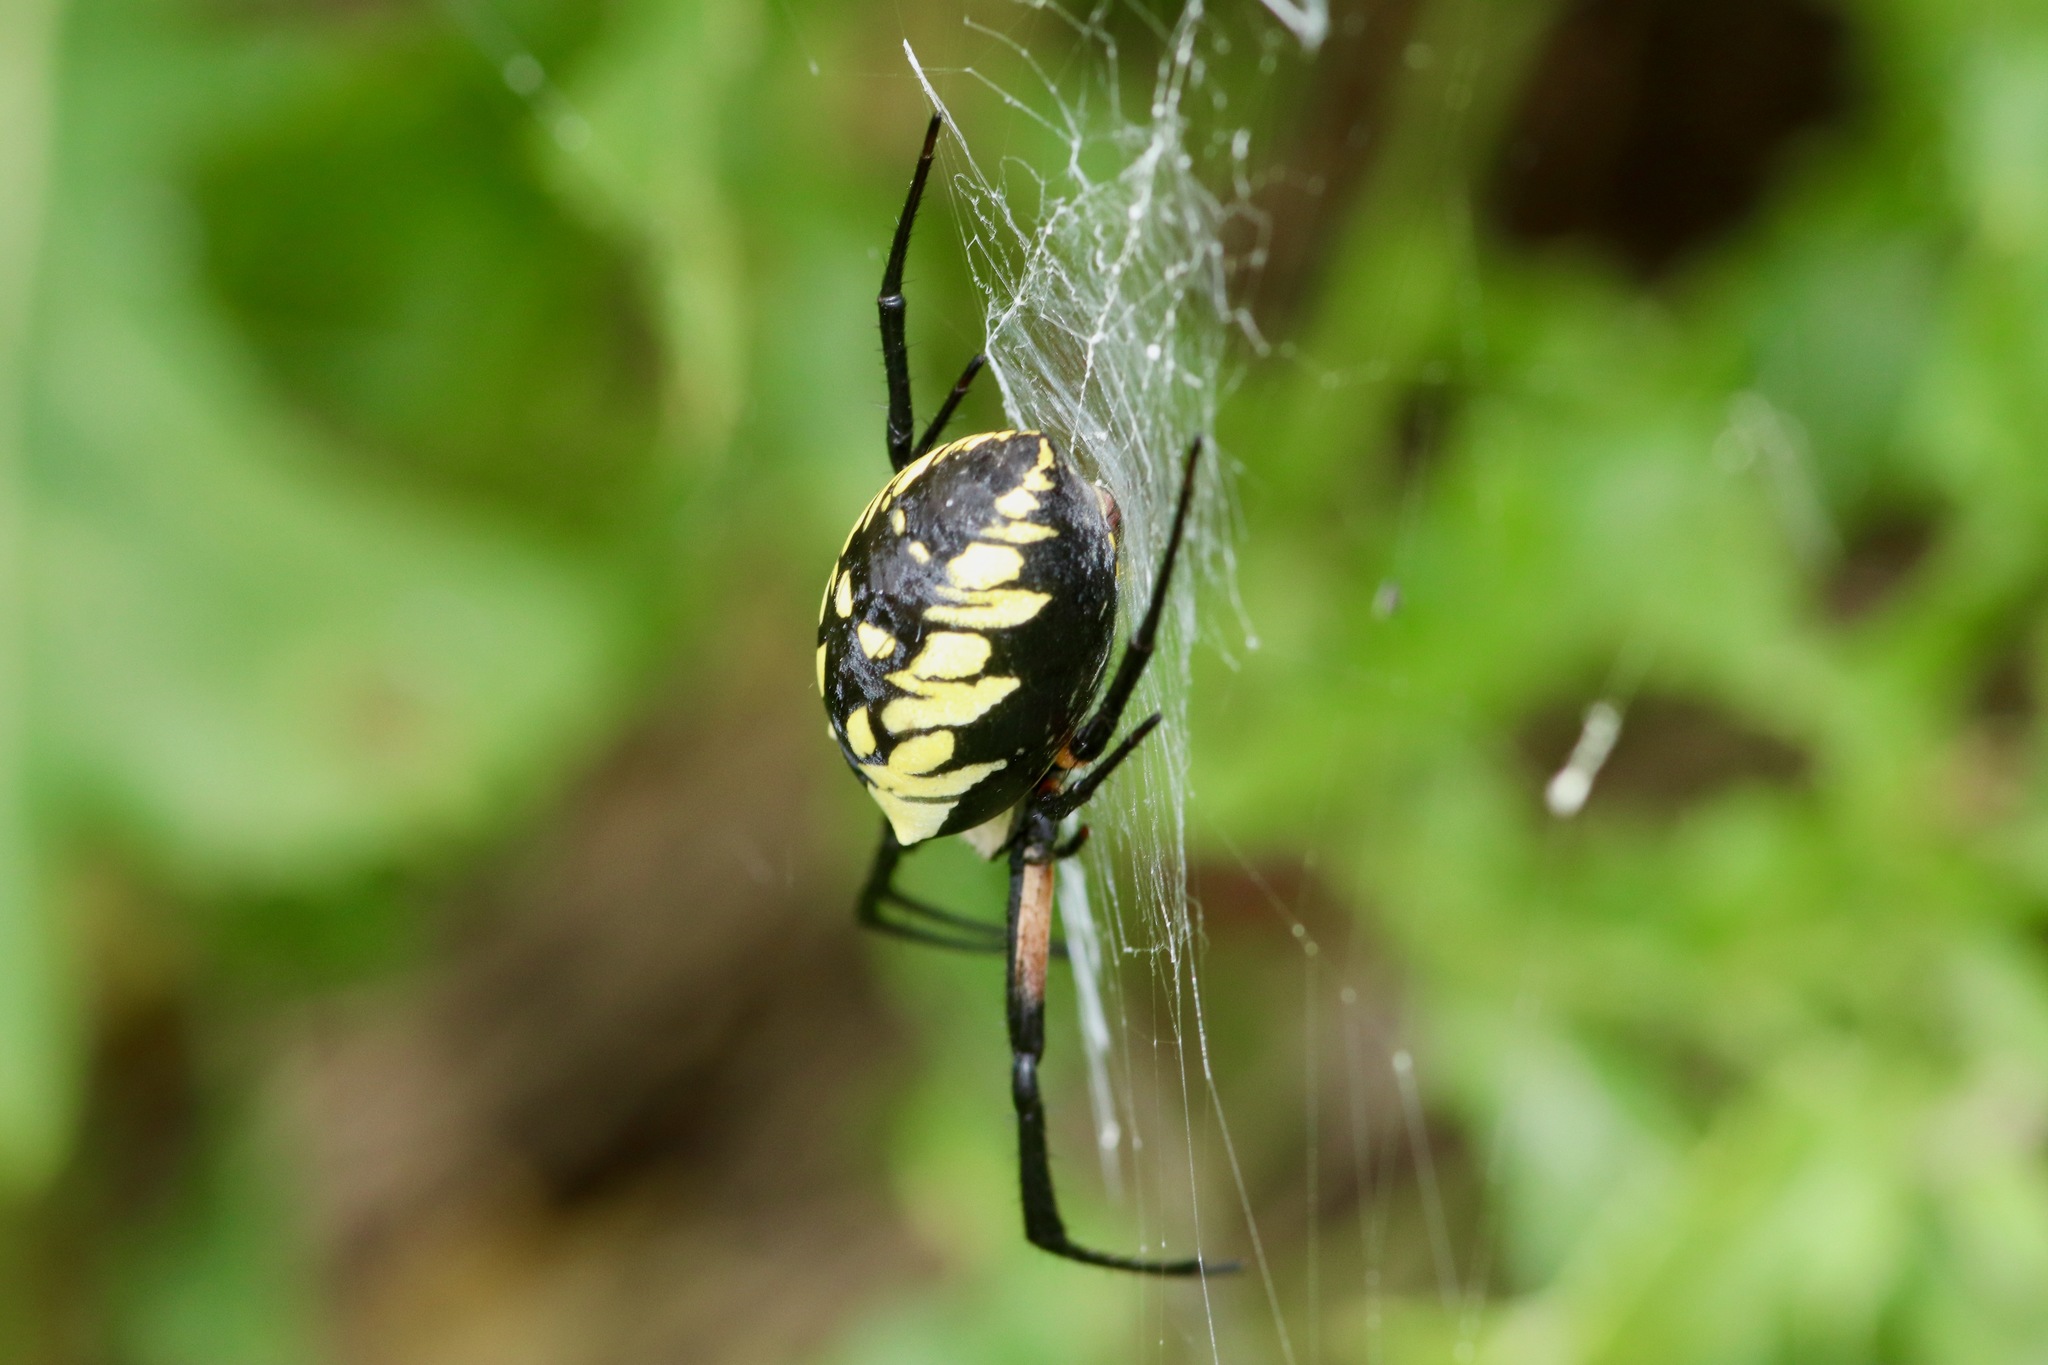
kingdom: Animalia
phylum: Arthropoda
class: Arachnida
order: Araneae
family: Araneidae
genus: Argiope
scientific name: Argiope aurantia
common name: Orb weavers
